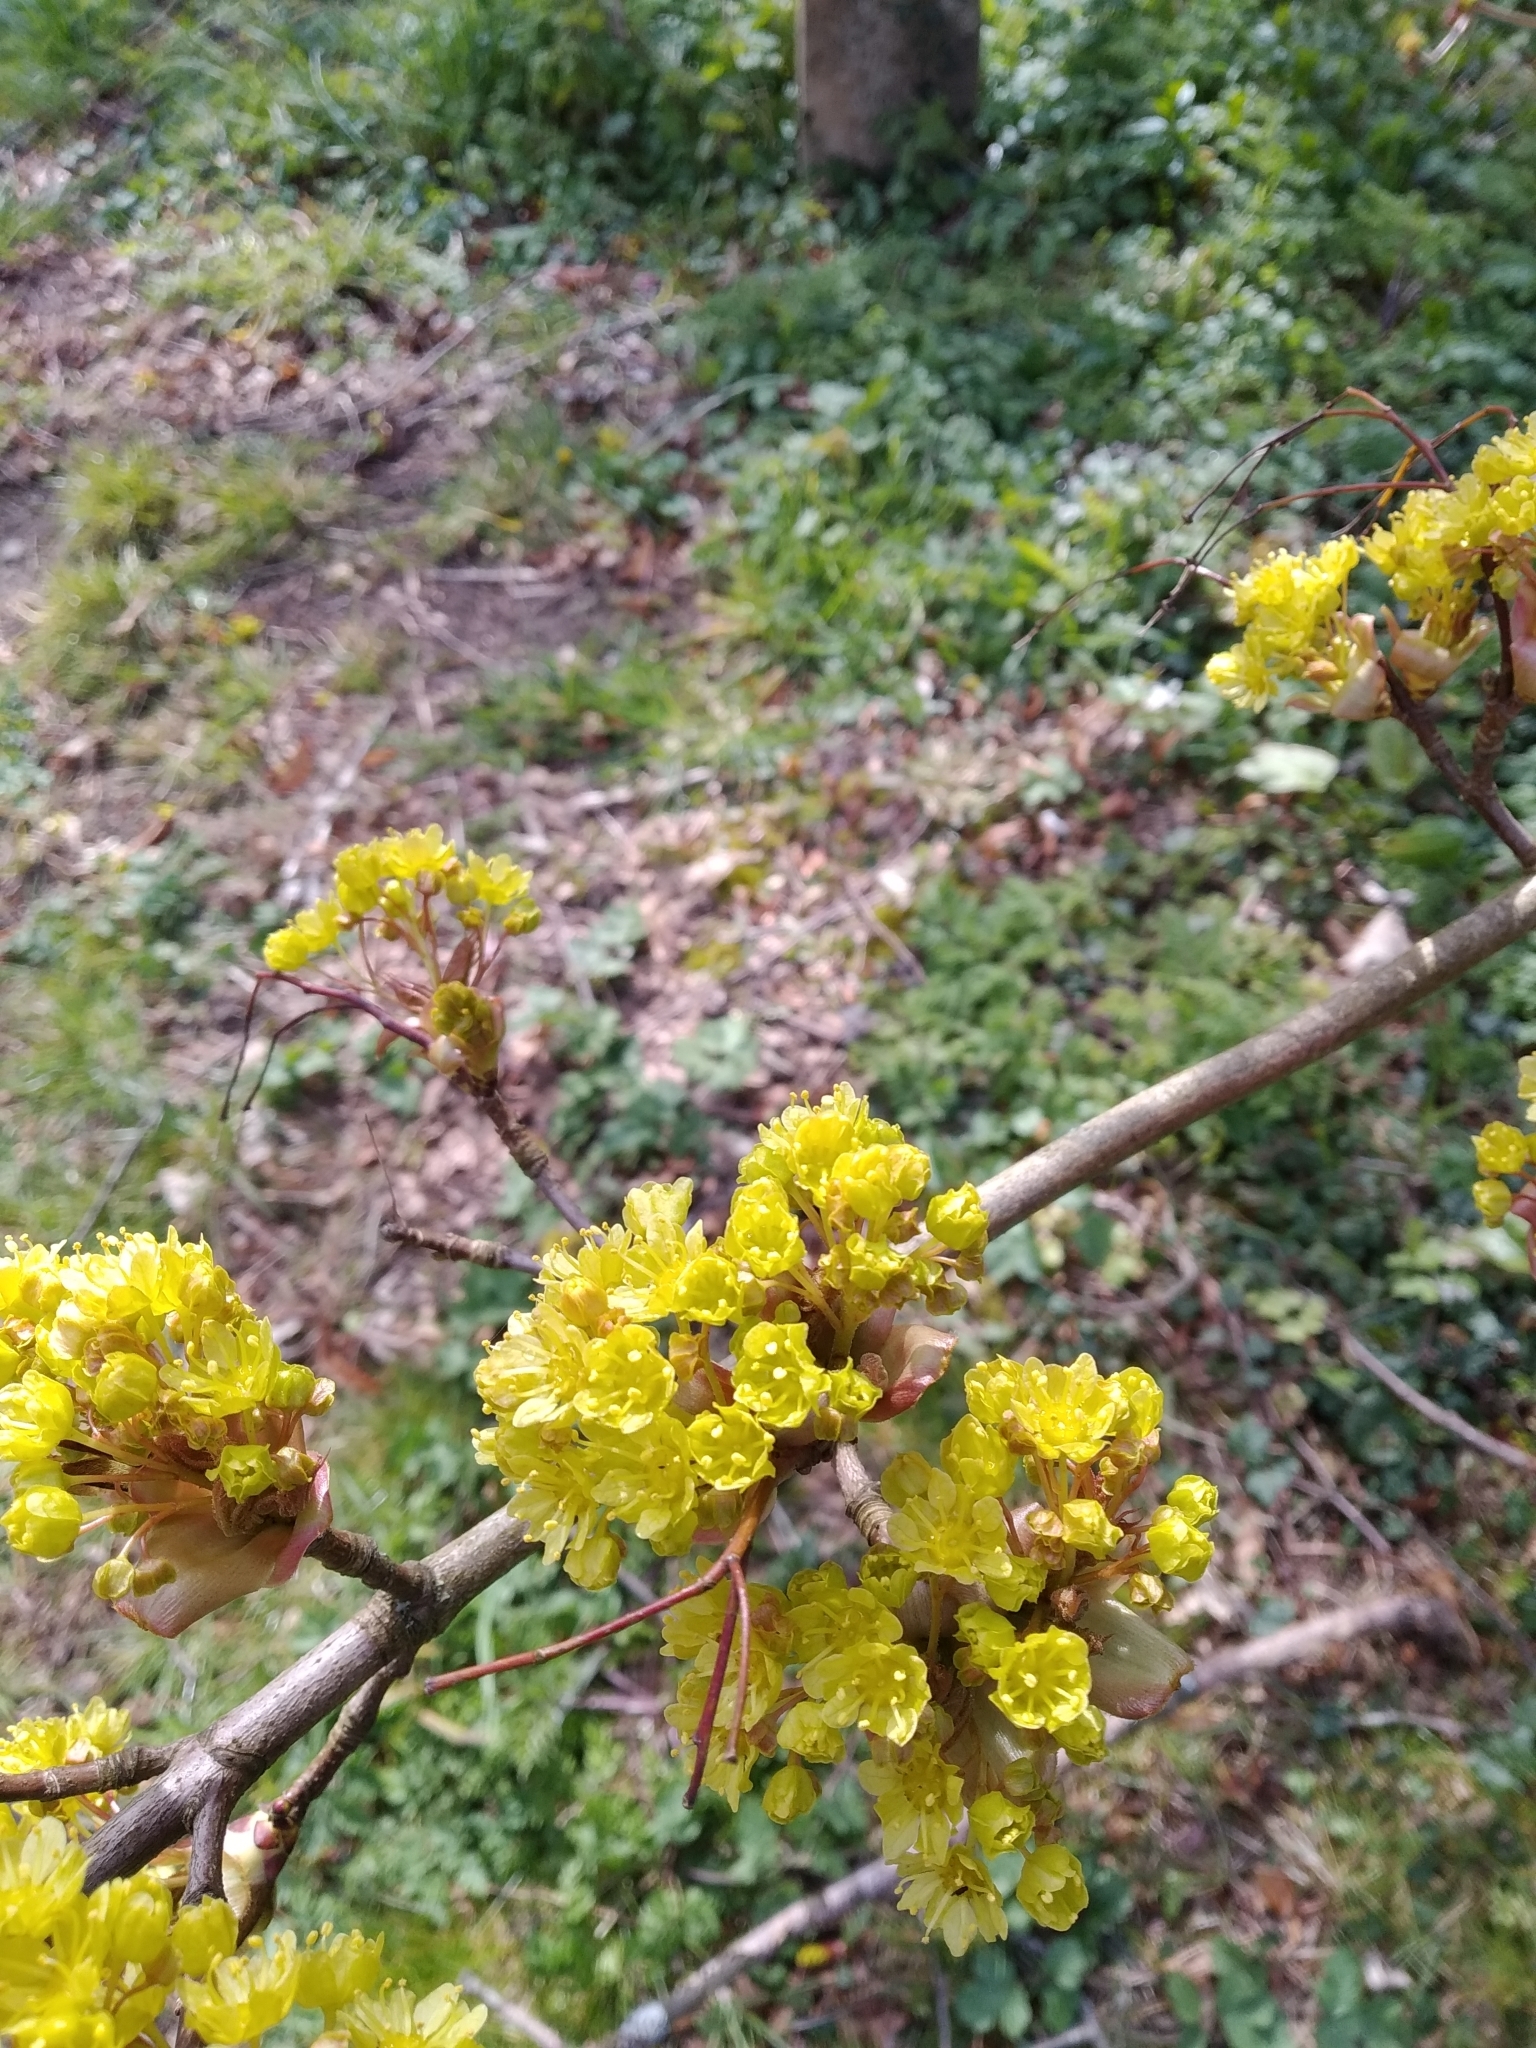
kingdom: Plantae
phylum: Tracheophyta
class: Magnoliopsida
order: Sapindales
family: Sapindaceae
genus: Acer
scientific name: Acer platanoides
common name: Norway maple
